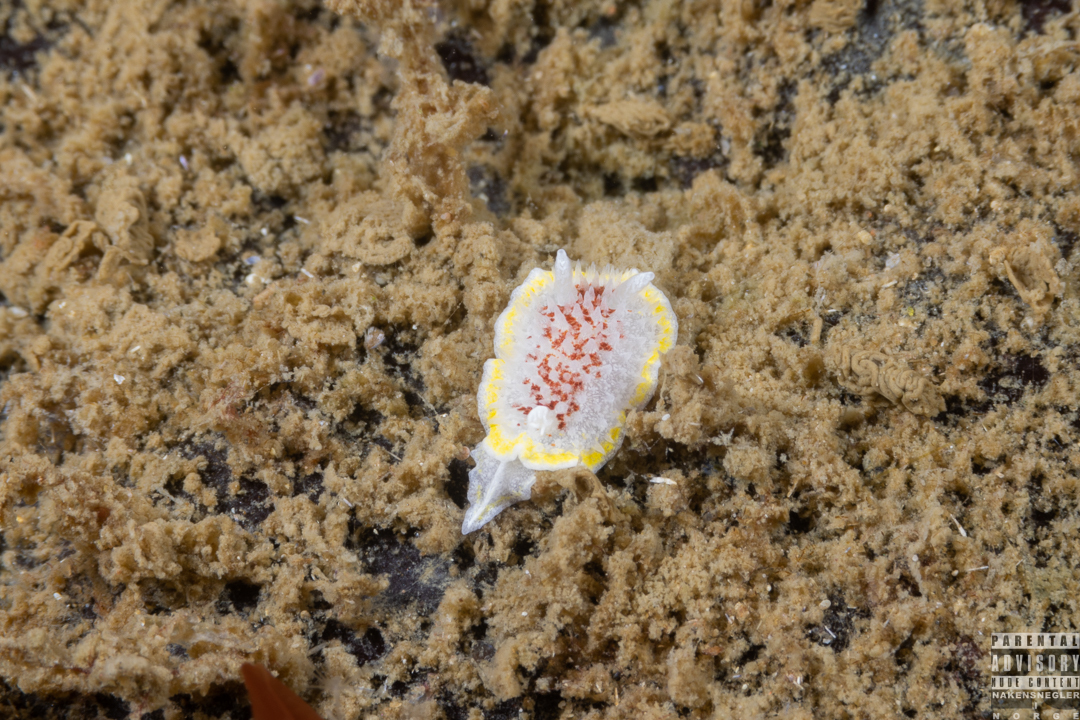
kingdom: Animalia
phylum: Mollusca
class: Gastropoda
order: Nudibranchia
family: Calycidorididae
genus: Diaphorodoris
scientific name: Diaphorodoris luteocincta
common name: Fried egg nudibranch
